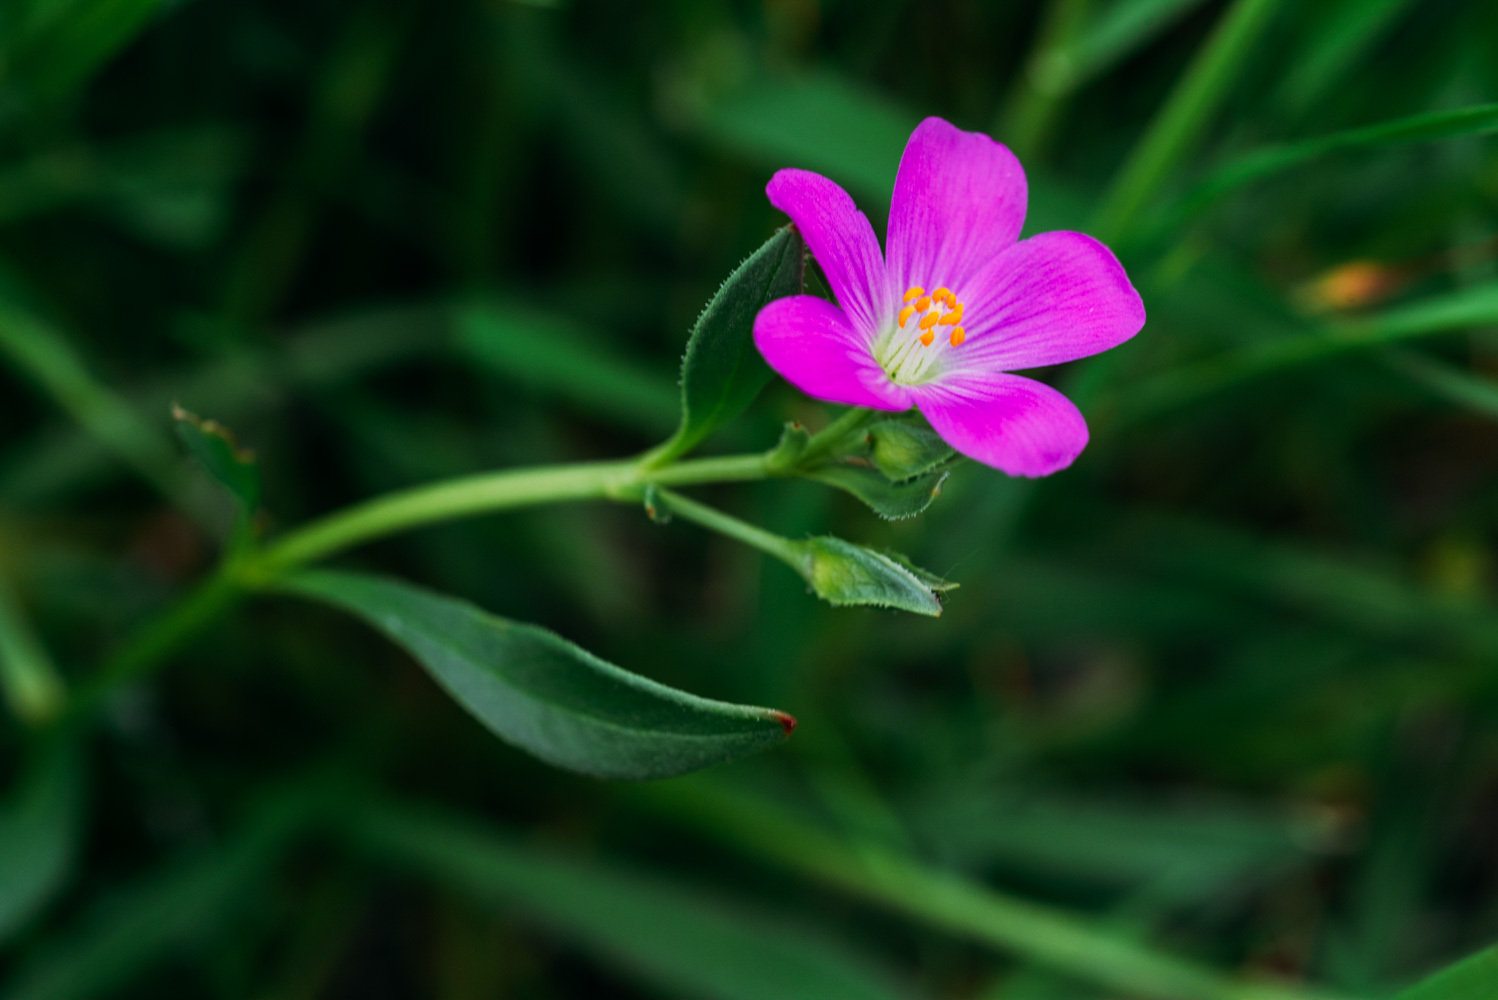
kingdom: Plantae
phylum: Tracheophyta
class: Magnoliopsida
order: Caryophyllales
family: Montiaceae
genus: Calandrinia
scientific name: Calandrinia menziesii
